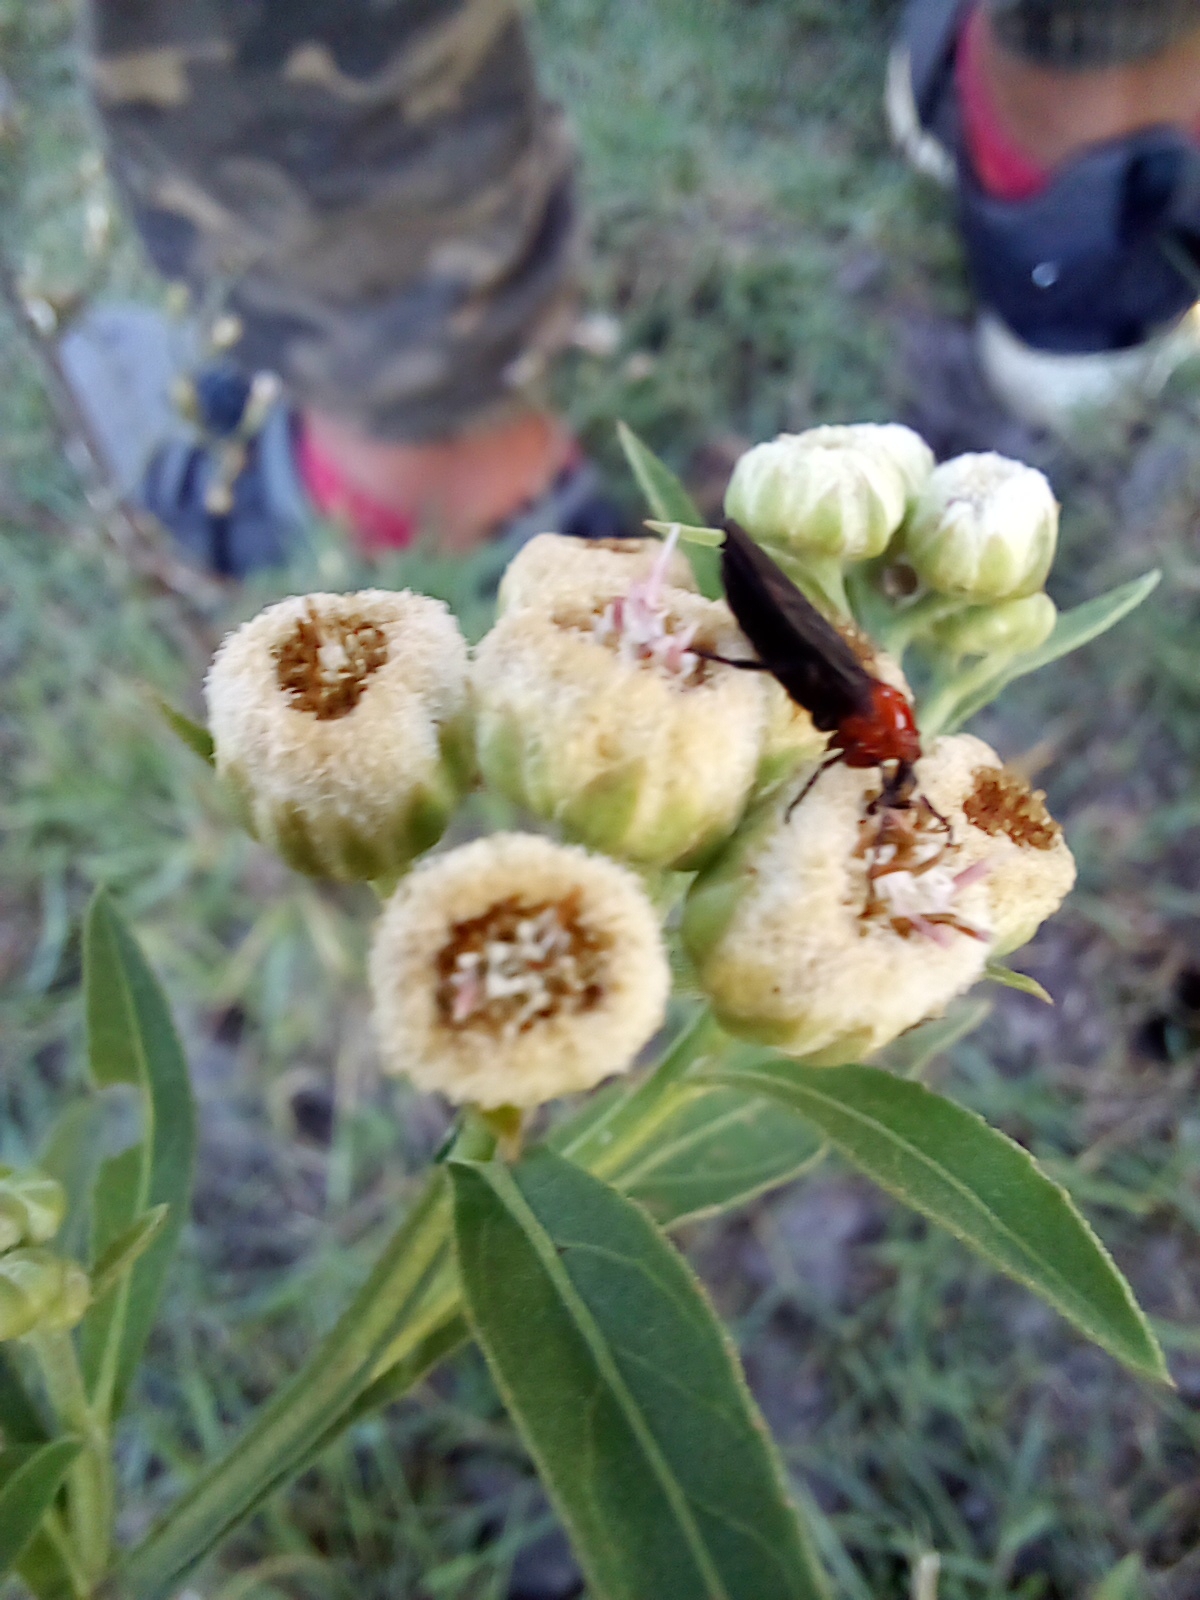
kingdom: Animalia
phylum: Arthropoda
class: Insecta
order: Diptera
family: Bibionidae
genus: Dilophus
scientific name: Dilophus pectoralis
